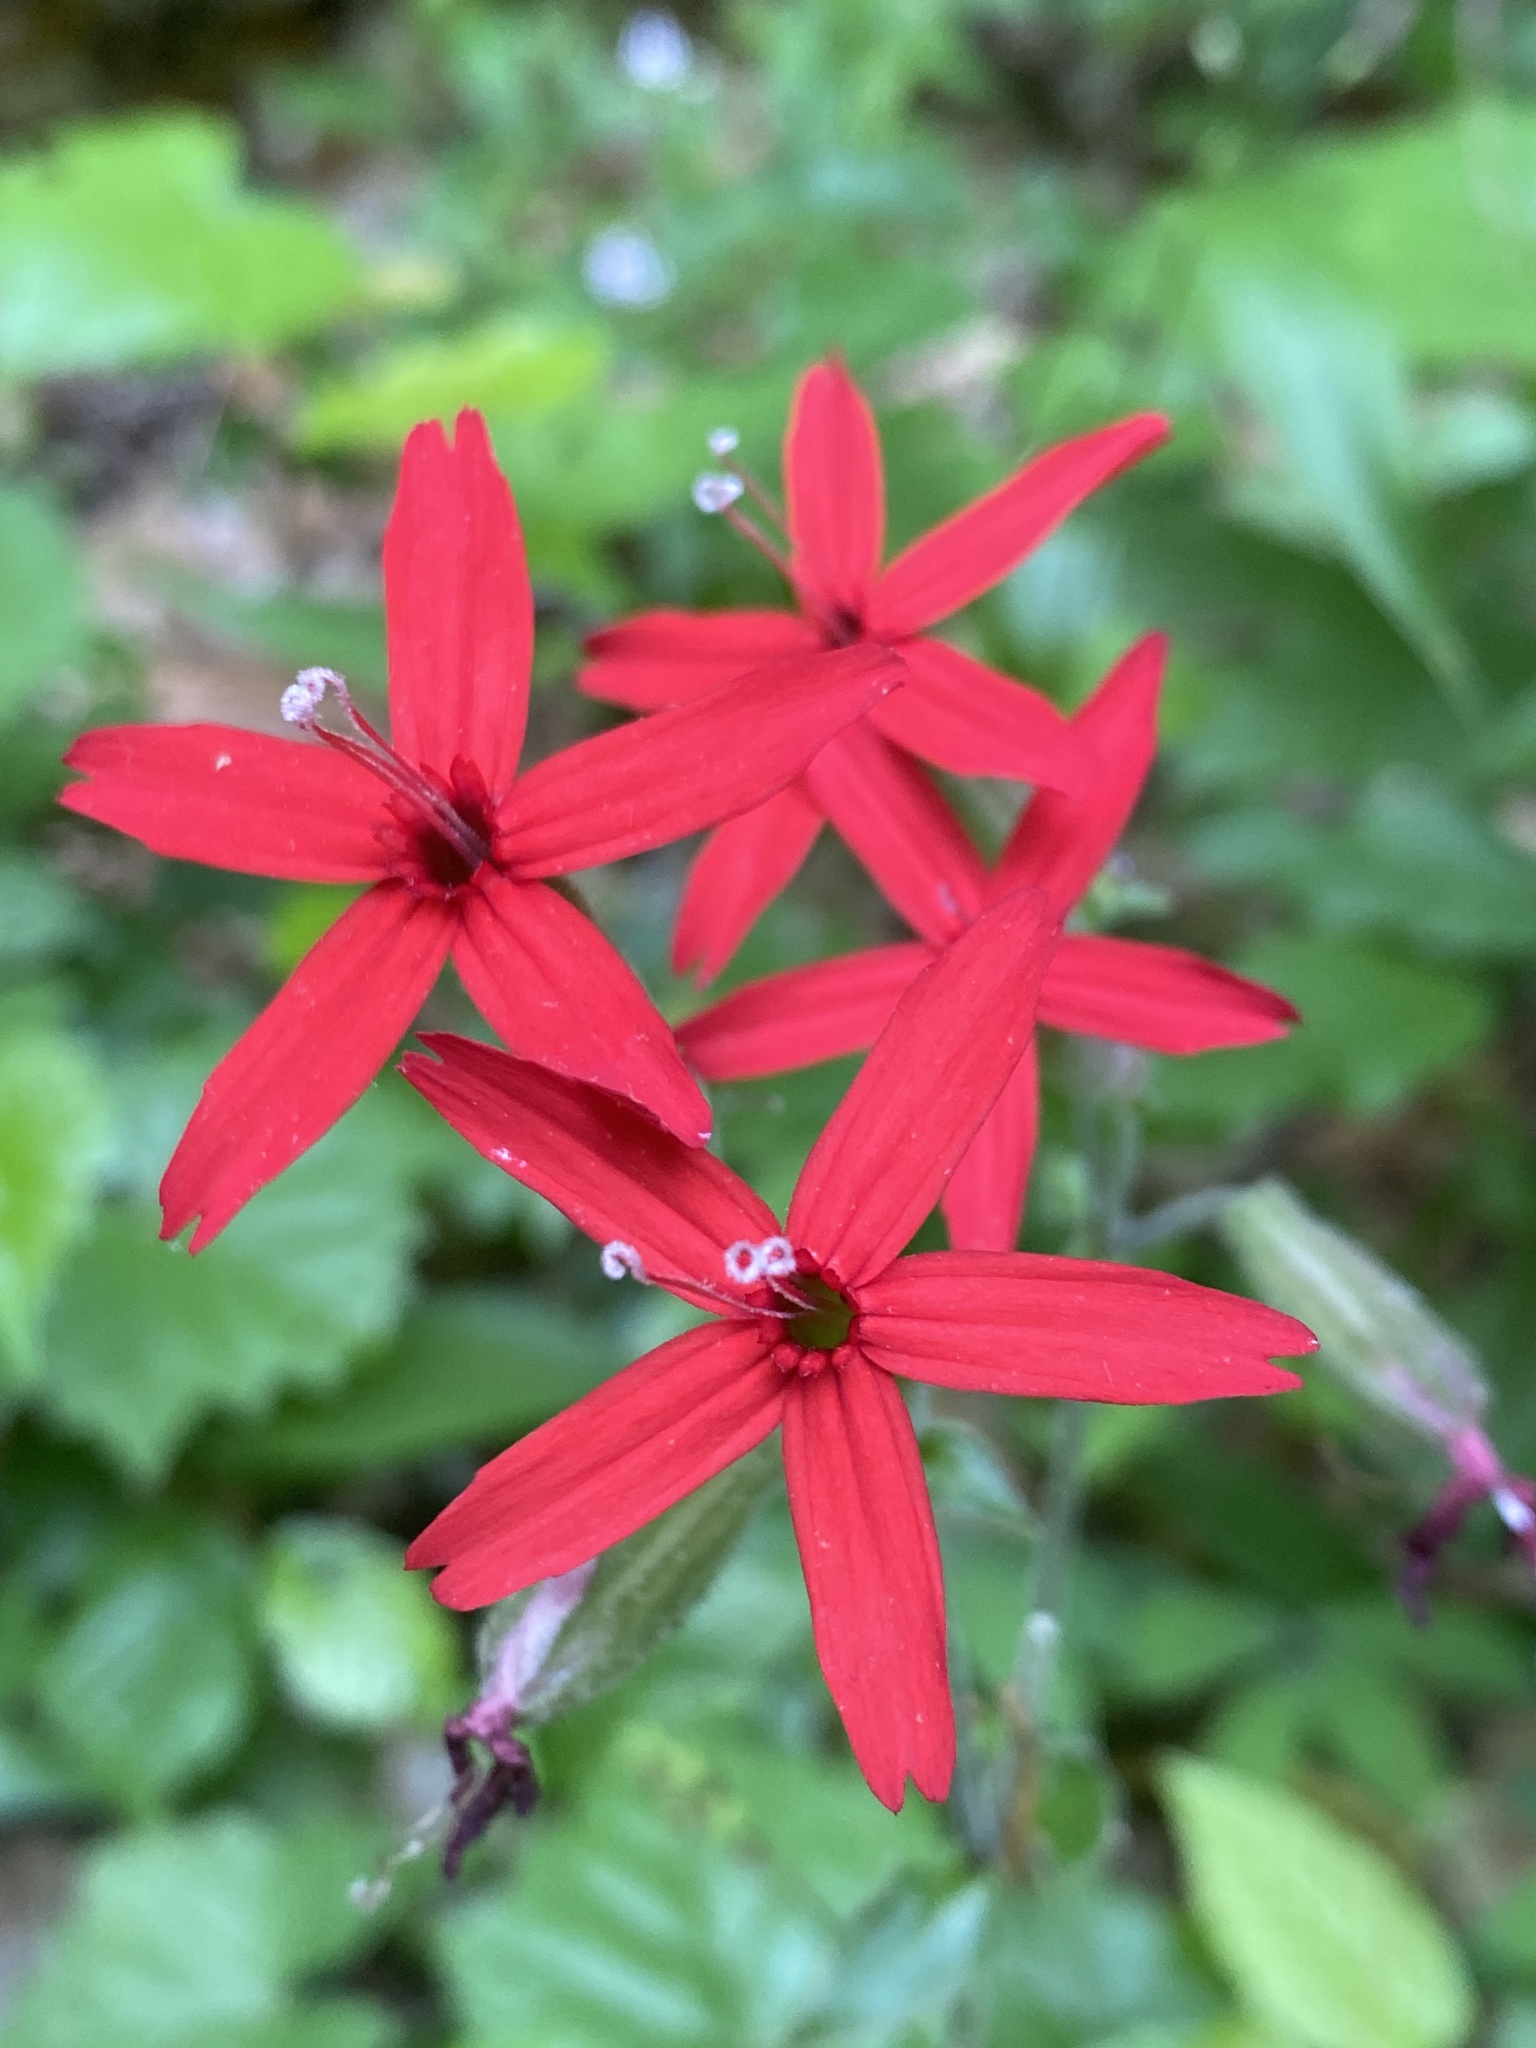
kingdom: Plantae
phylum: Tracheophyta
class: Magnoliopsida
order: Caryophyllales
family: Caryophyllaceae
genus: Silene
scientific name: Silene virginica
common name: Fire-pink
